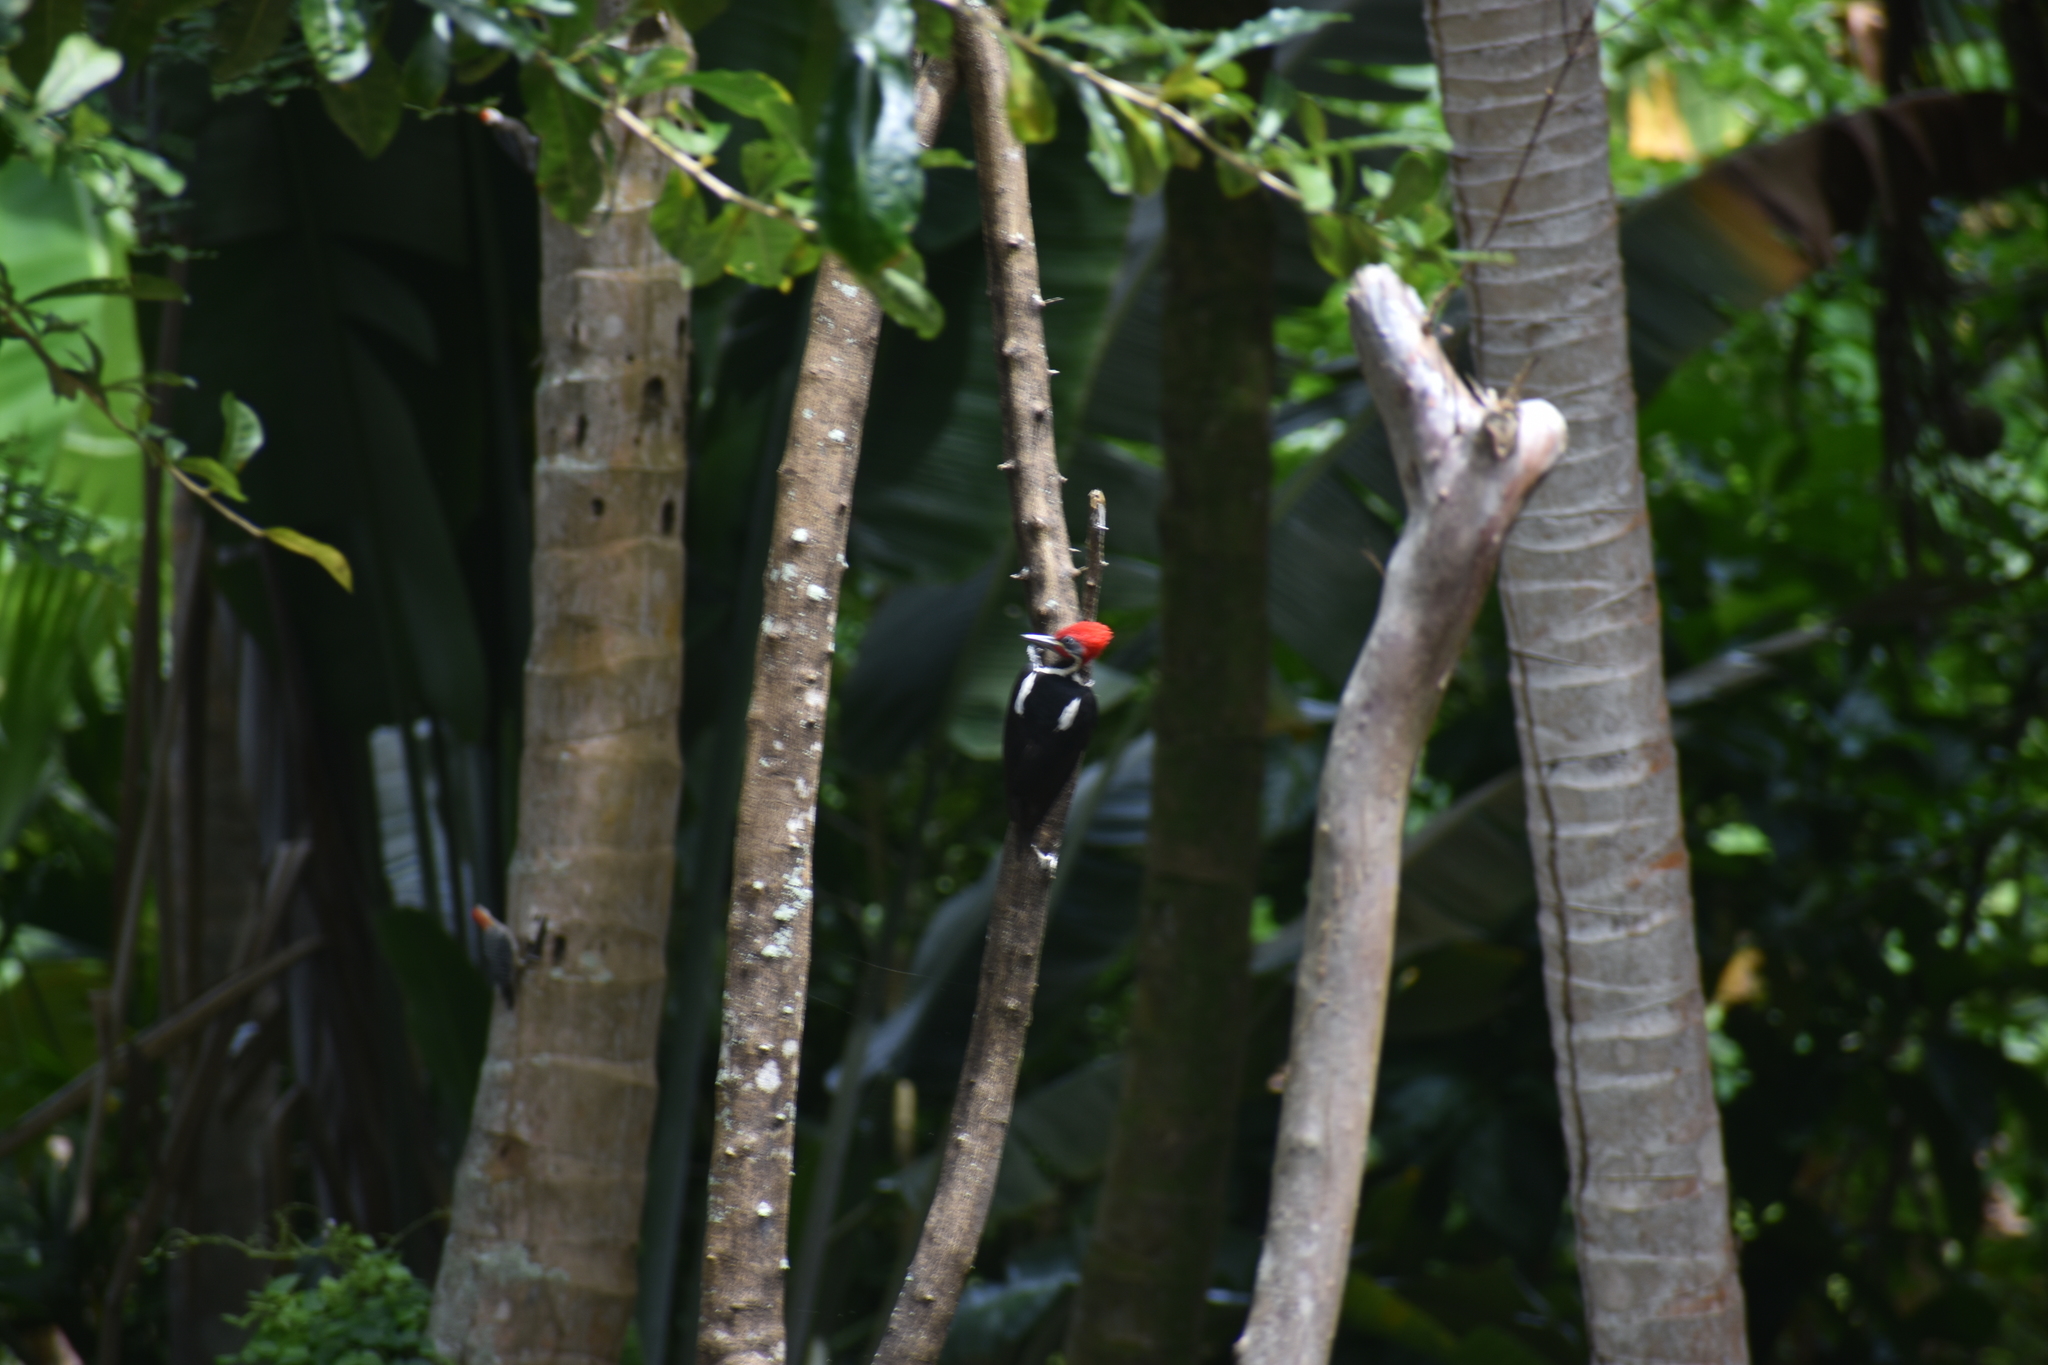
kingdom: Animalia
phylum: Chordata
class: Aves
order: Piciformes
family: Picidae
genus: Dryocopus
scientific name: Dryocopus lineatus
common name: Lineated woodpecker
